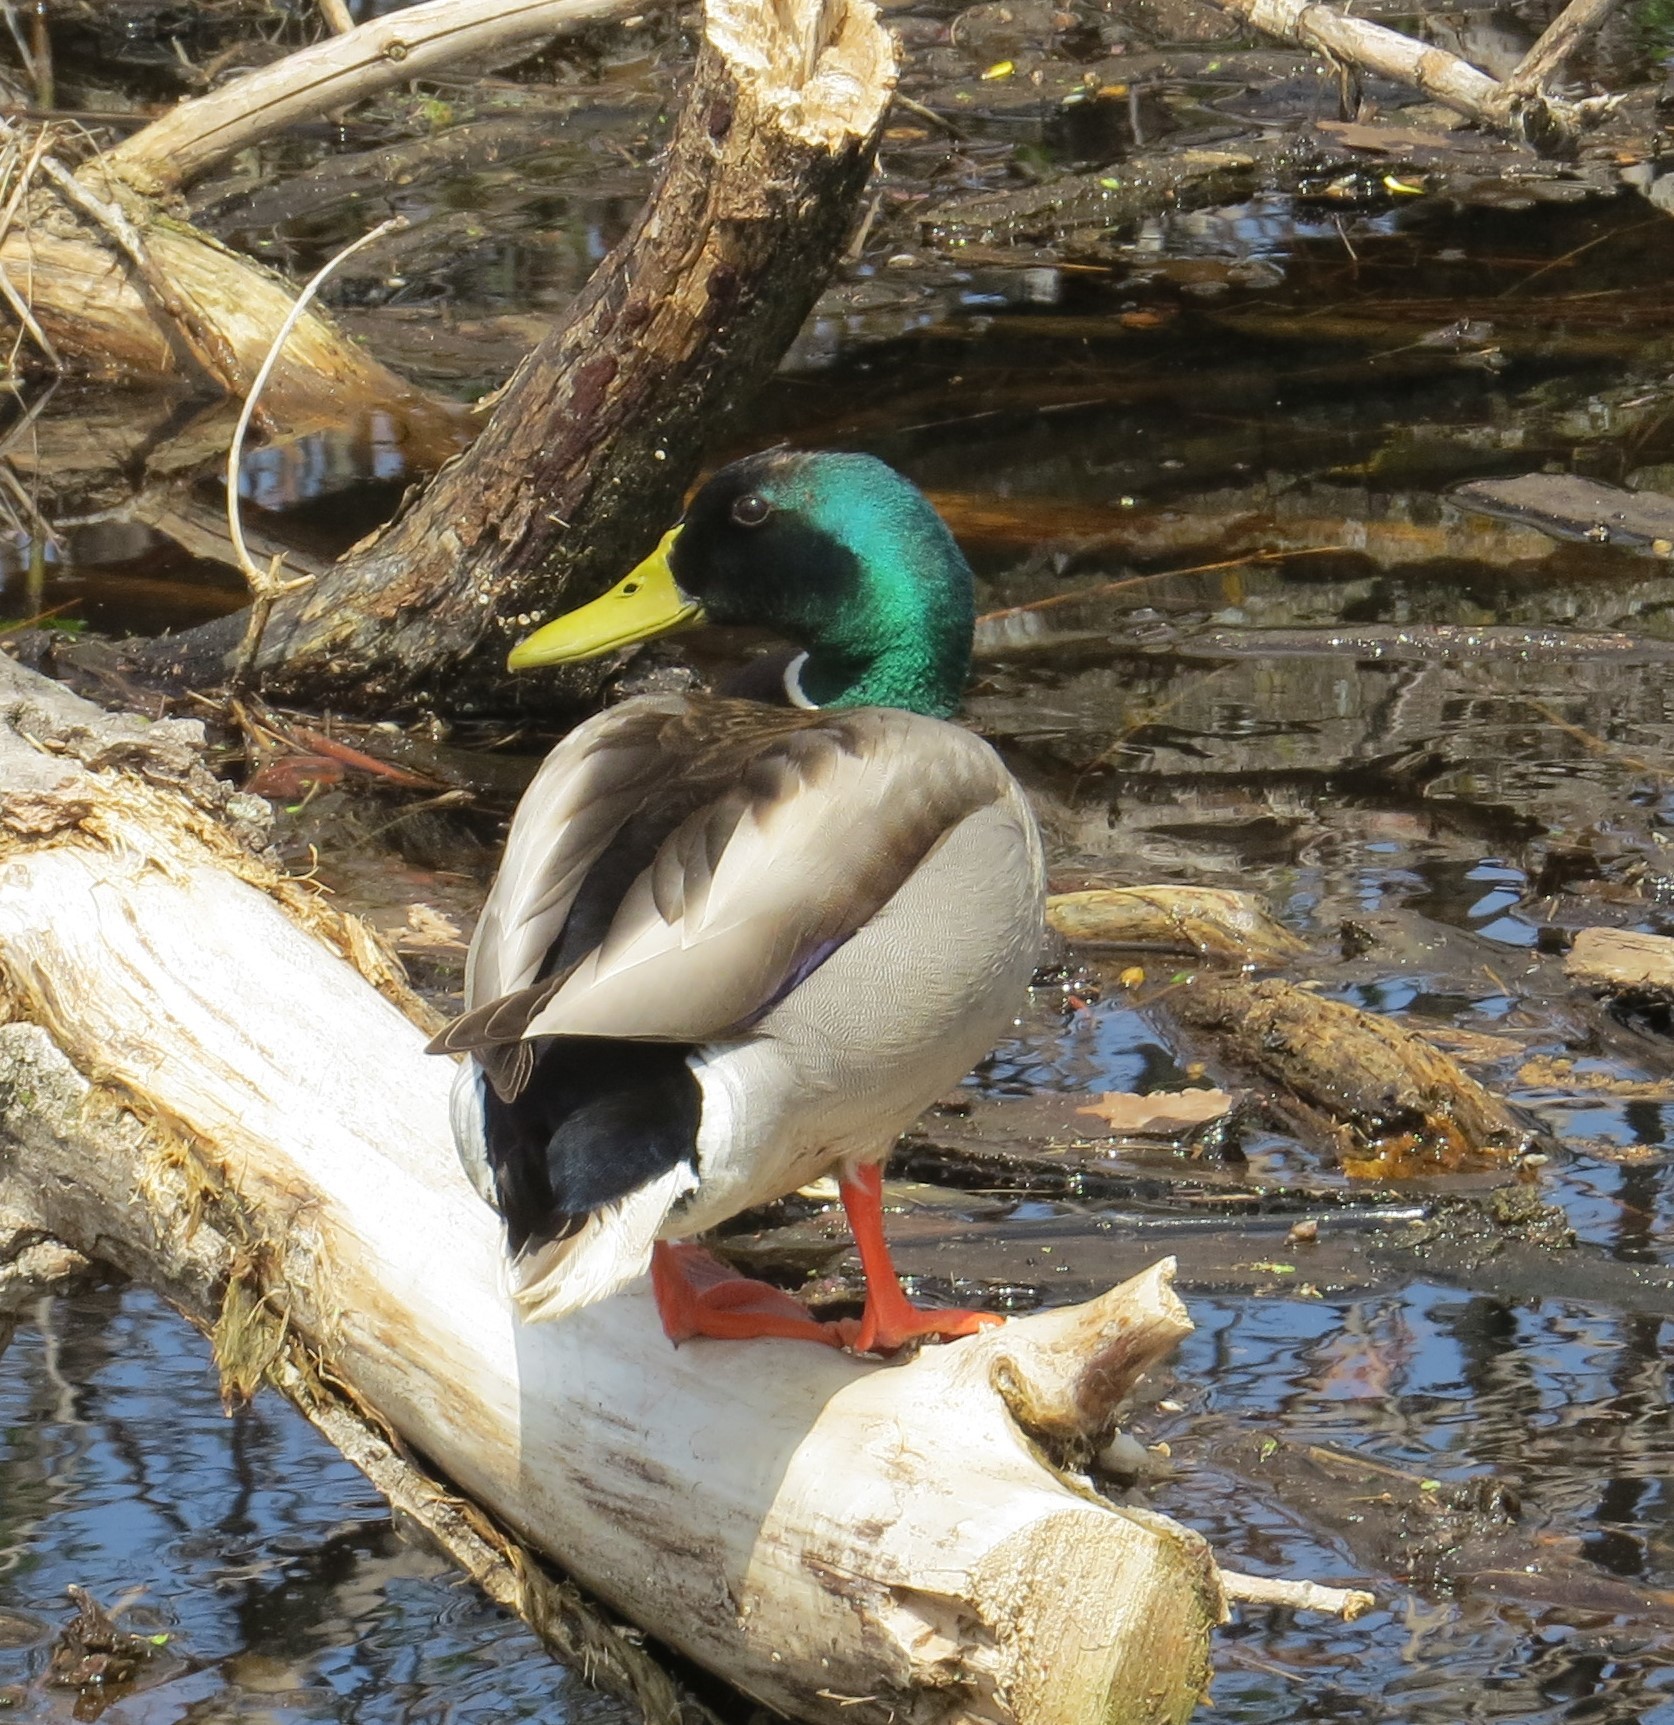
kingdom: Animalia
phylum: Chordata
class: Aves
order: Anseriformes
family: Anatidae
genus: Anas
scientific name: Anas platyrhynchos
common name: Mallard
